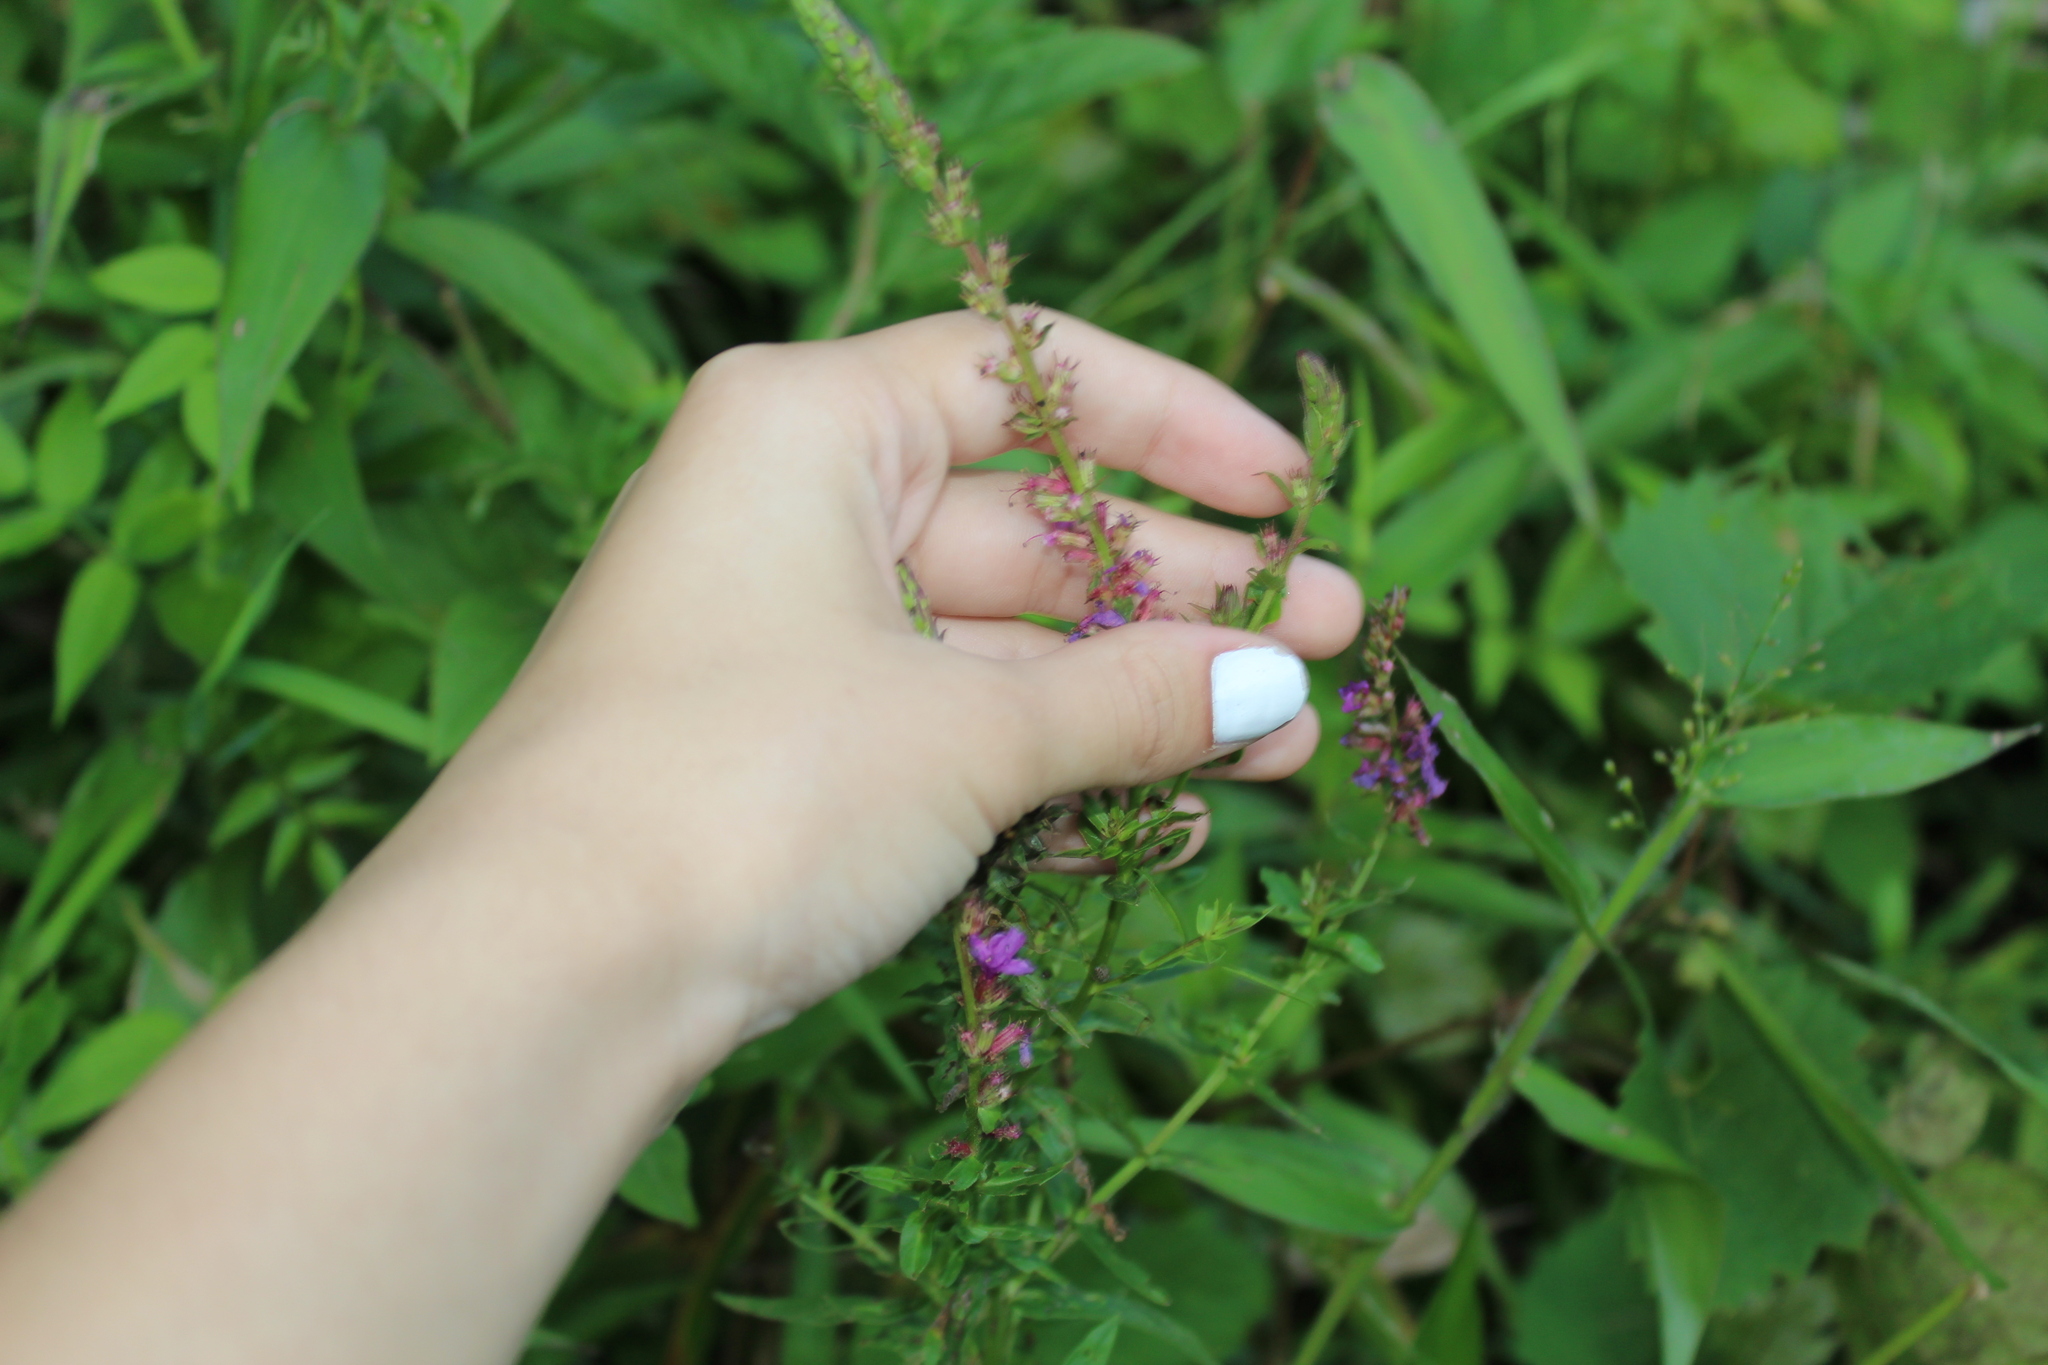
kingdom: Plantae
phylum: Tracheophyta
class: Magnoliopsida
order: Myrtales
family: Lythraceae
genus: Lythrum
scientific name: Lythrum salicaria
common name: Purple loosestrife
